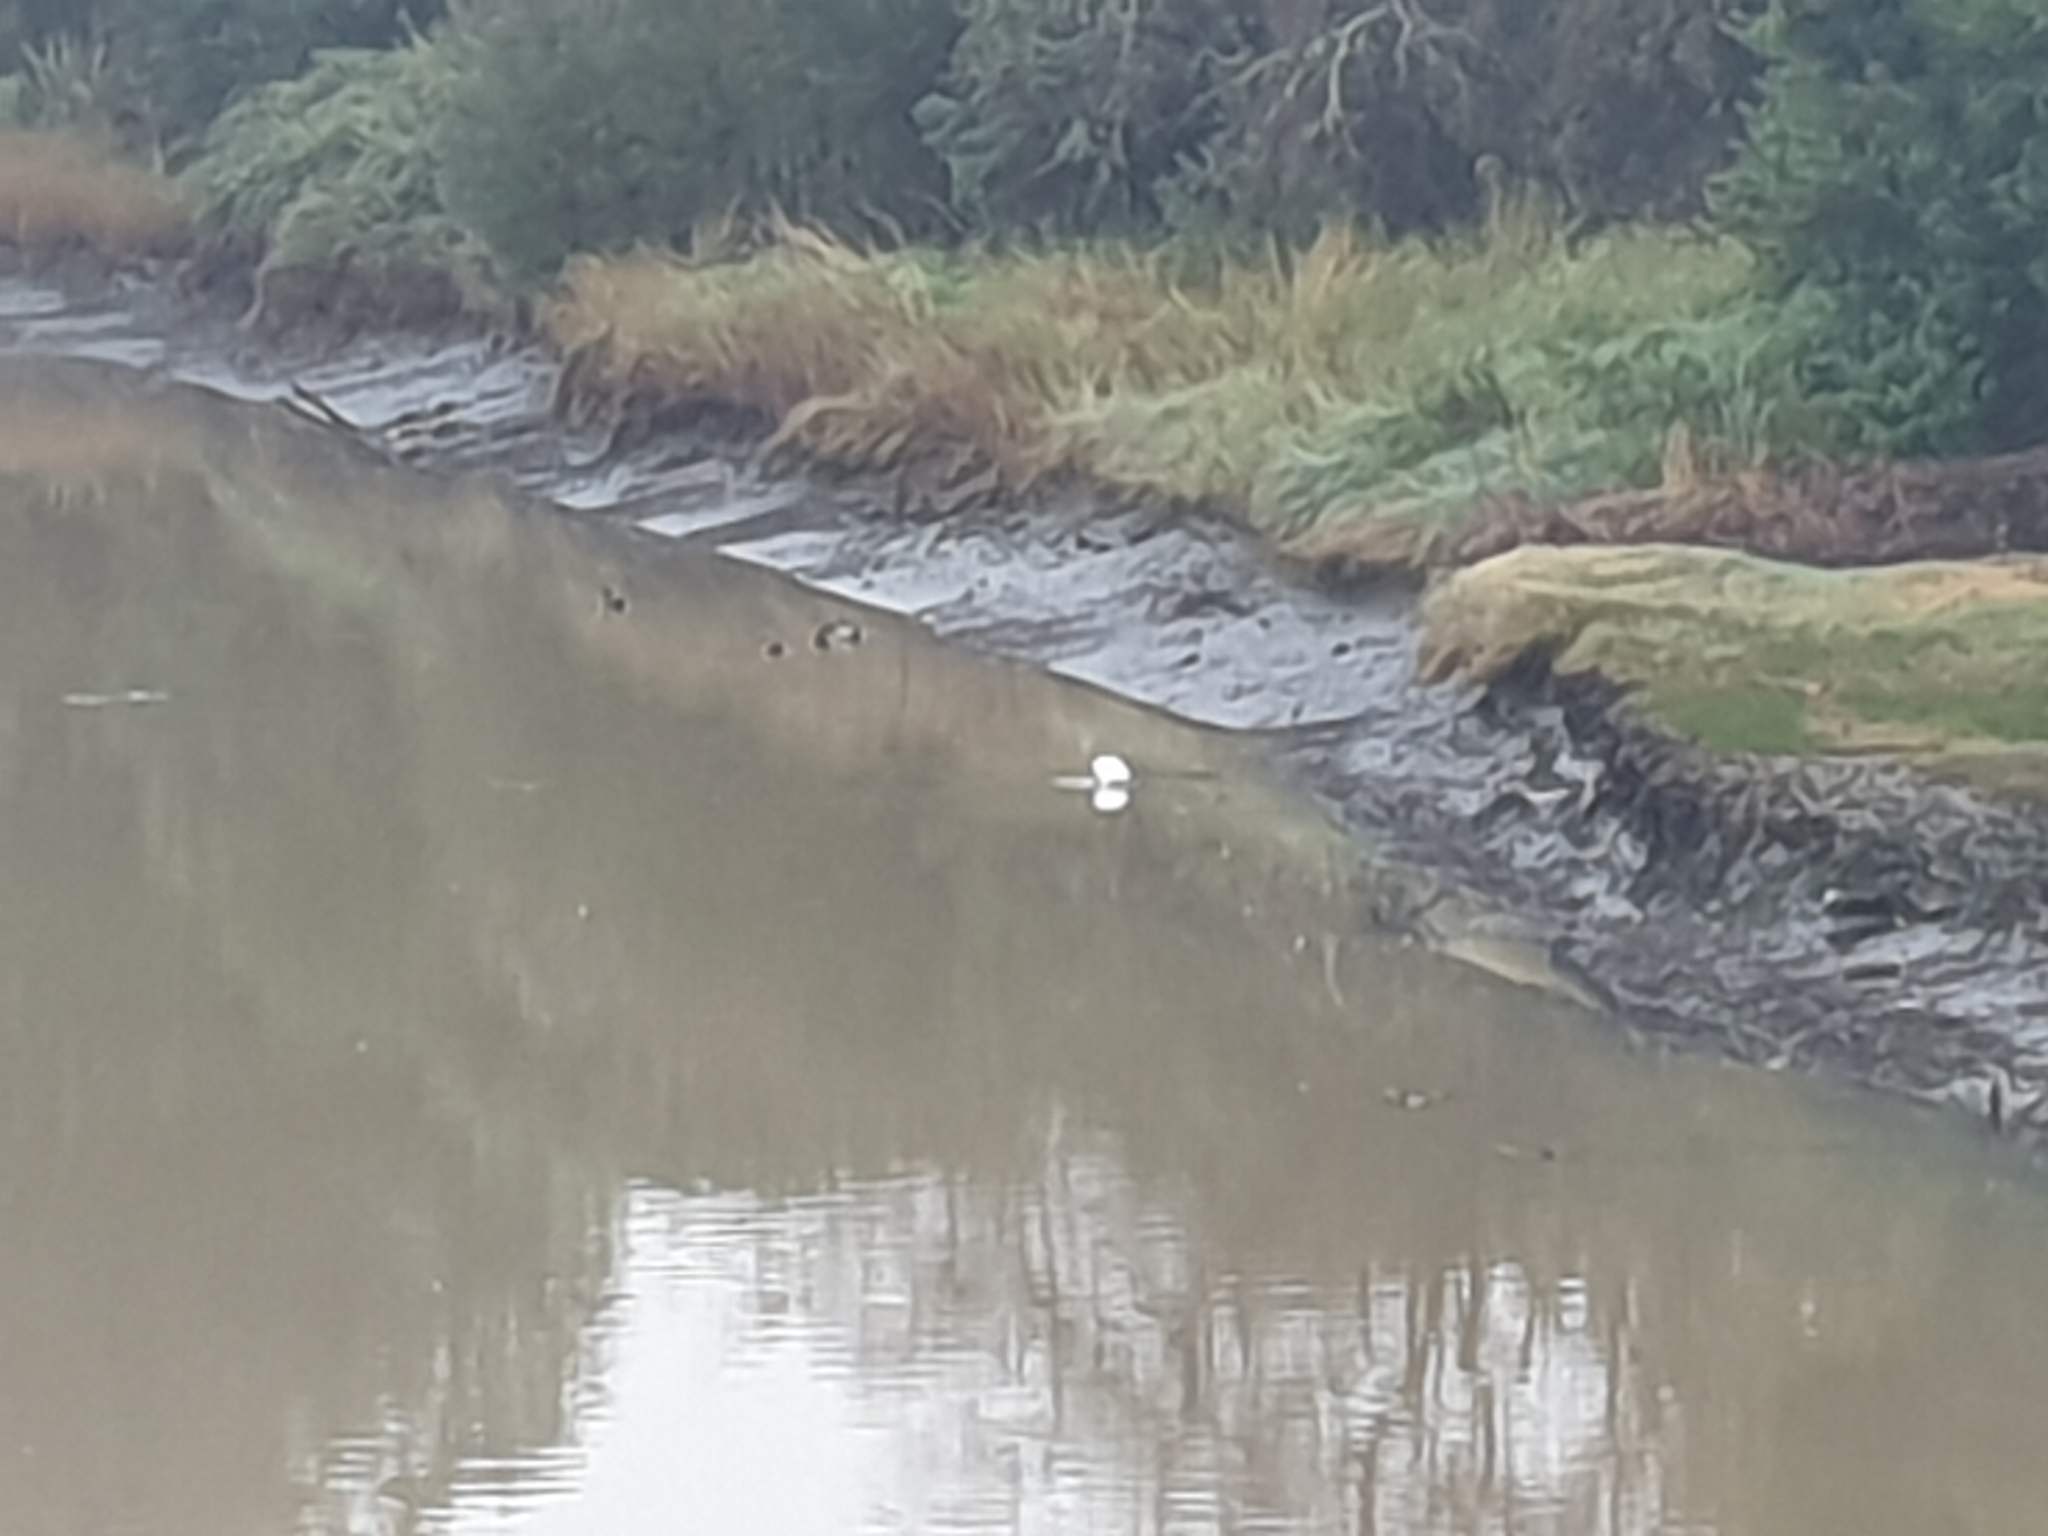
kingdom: Animalia
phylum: Chordata
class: Aves
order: Pelecaniformes
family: Threskiornithidae
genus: Platalea
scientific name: Platalea regia
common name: Royal spoonbill
